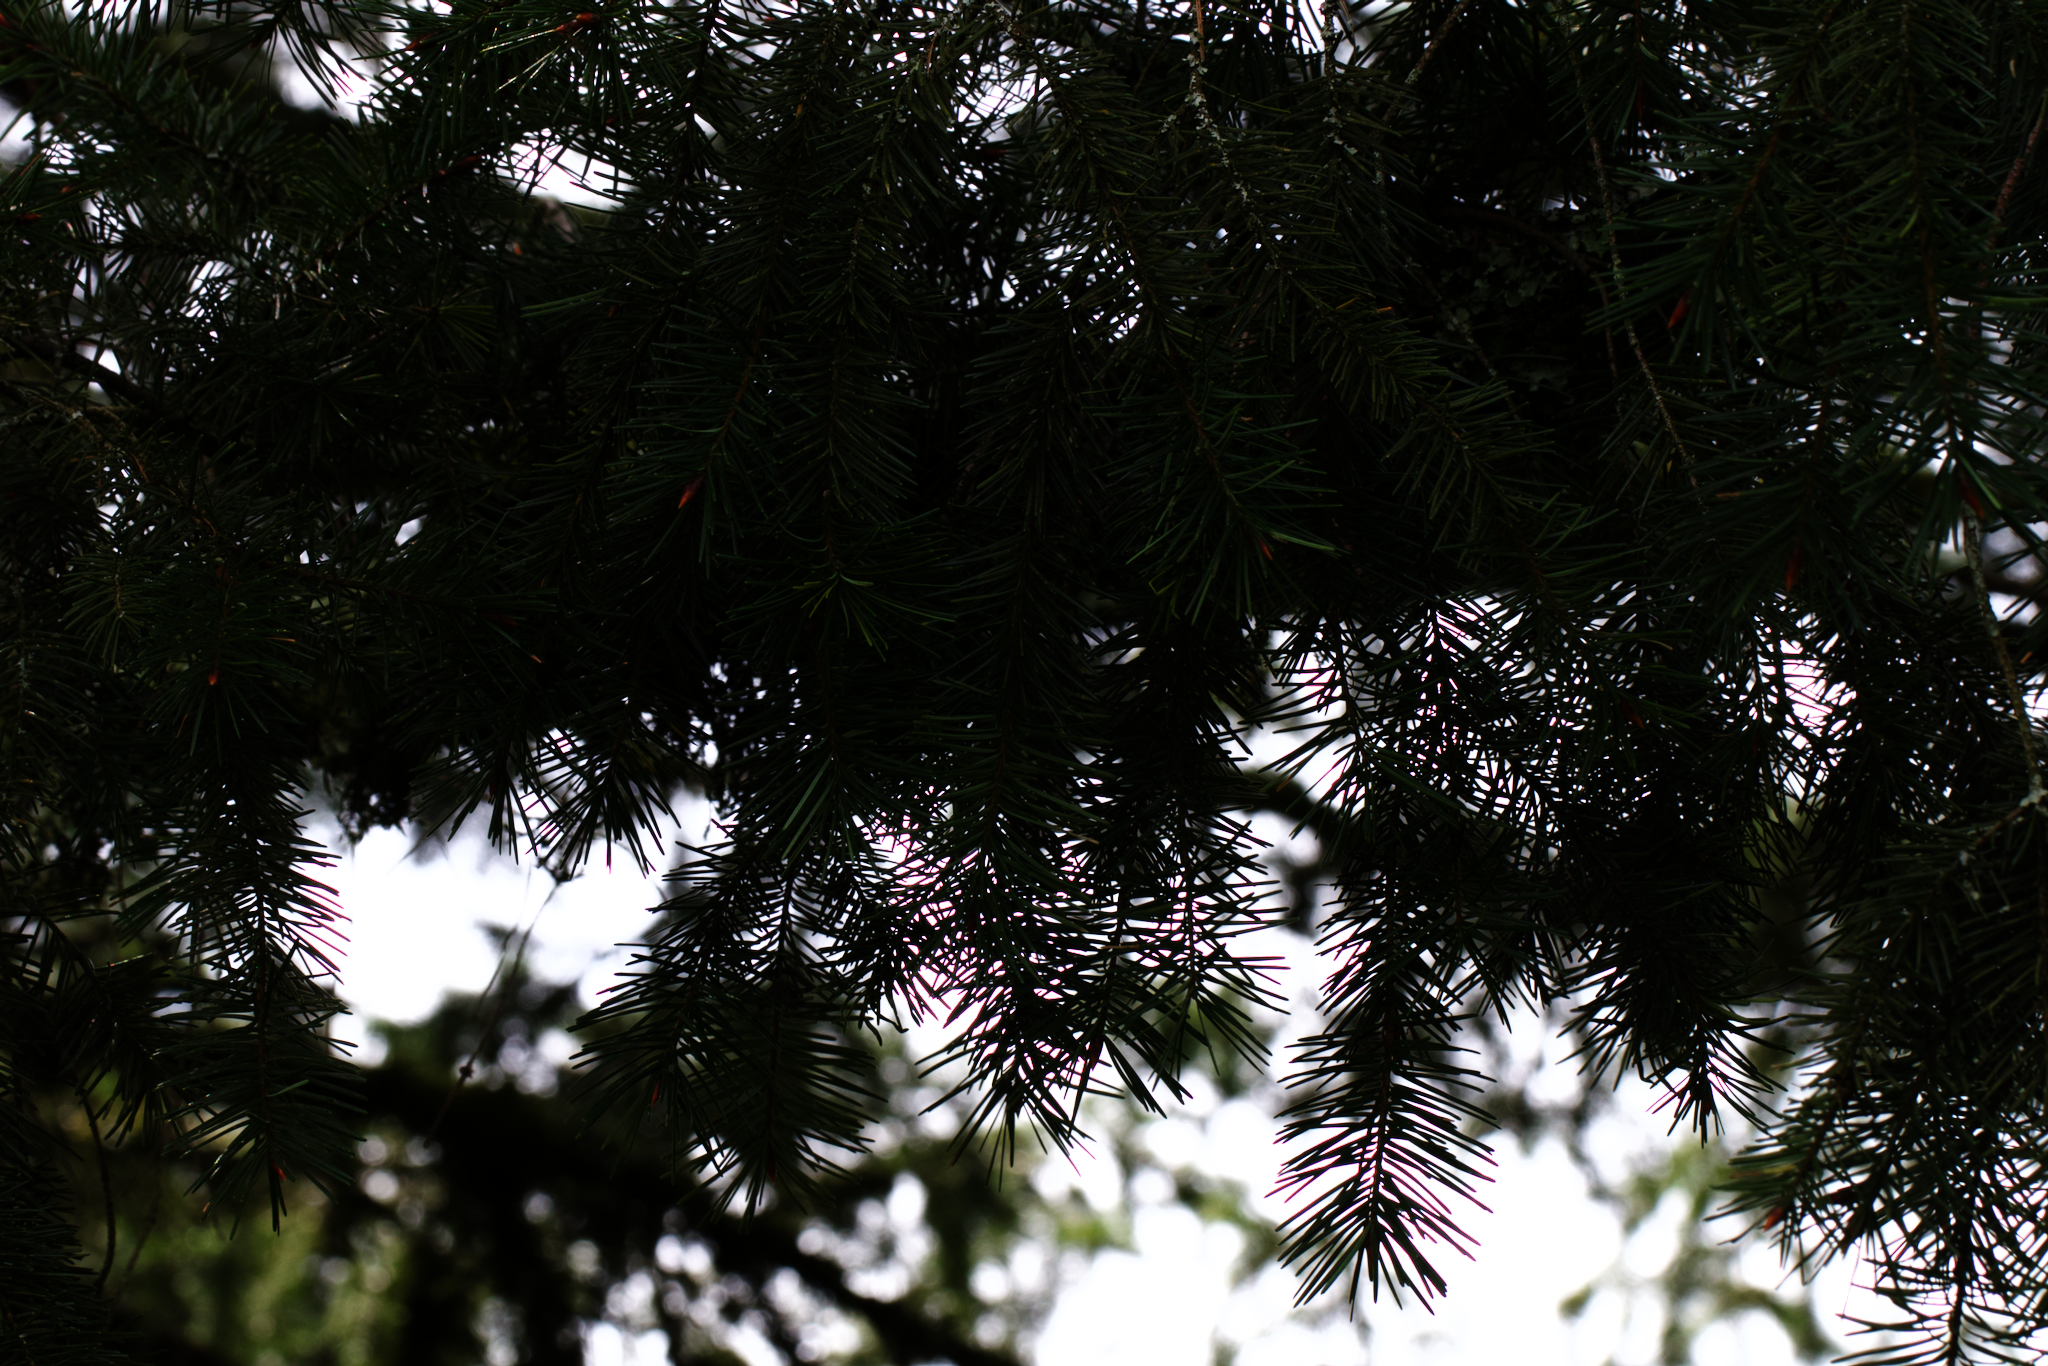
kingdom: Plantae
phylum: Tracheophyta
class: Pinopsida
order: Pinales
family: Pinaceae
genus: Pseudotsuga
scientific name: Pseudotsuga menziesii
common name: Douglas fir
